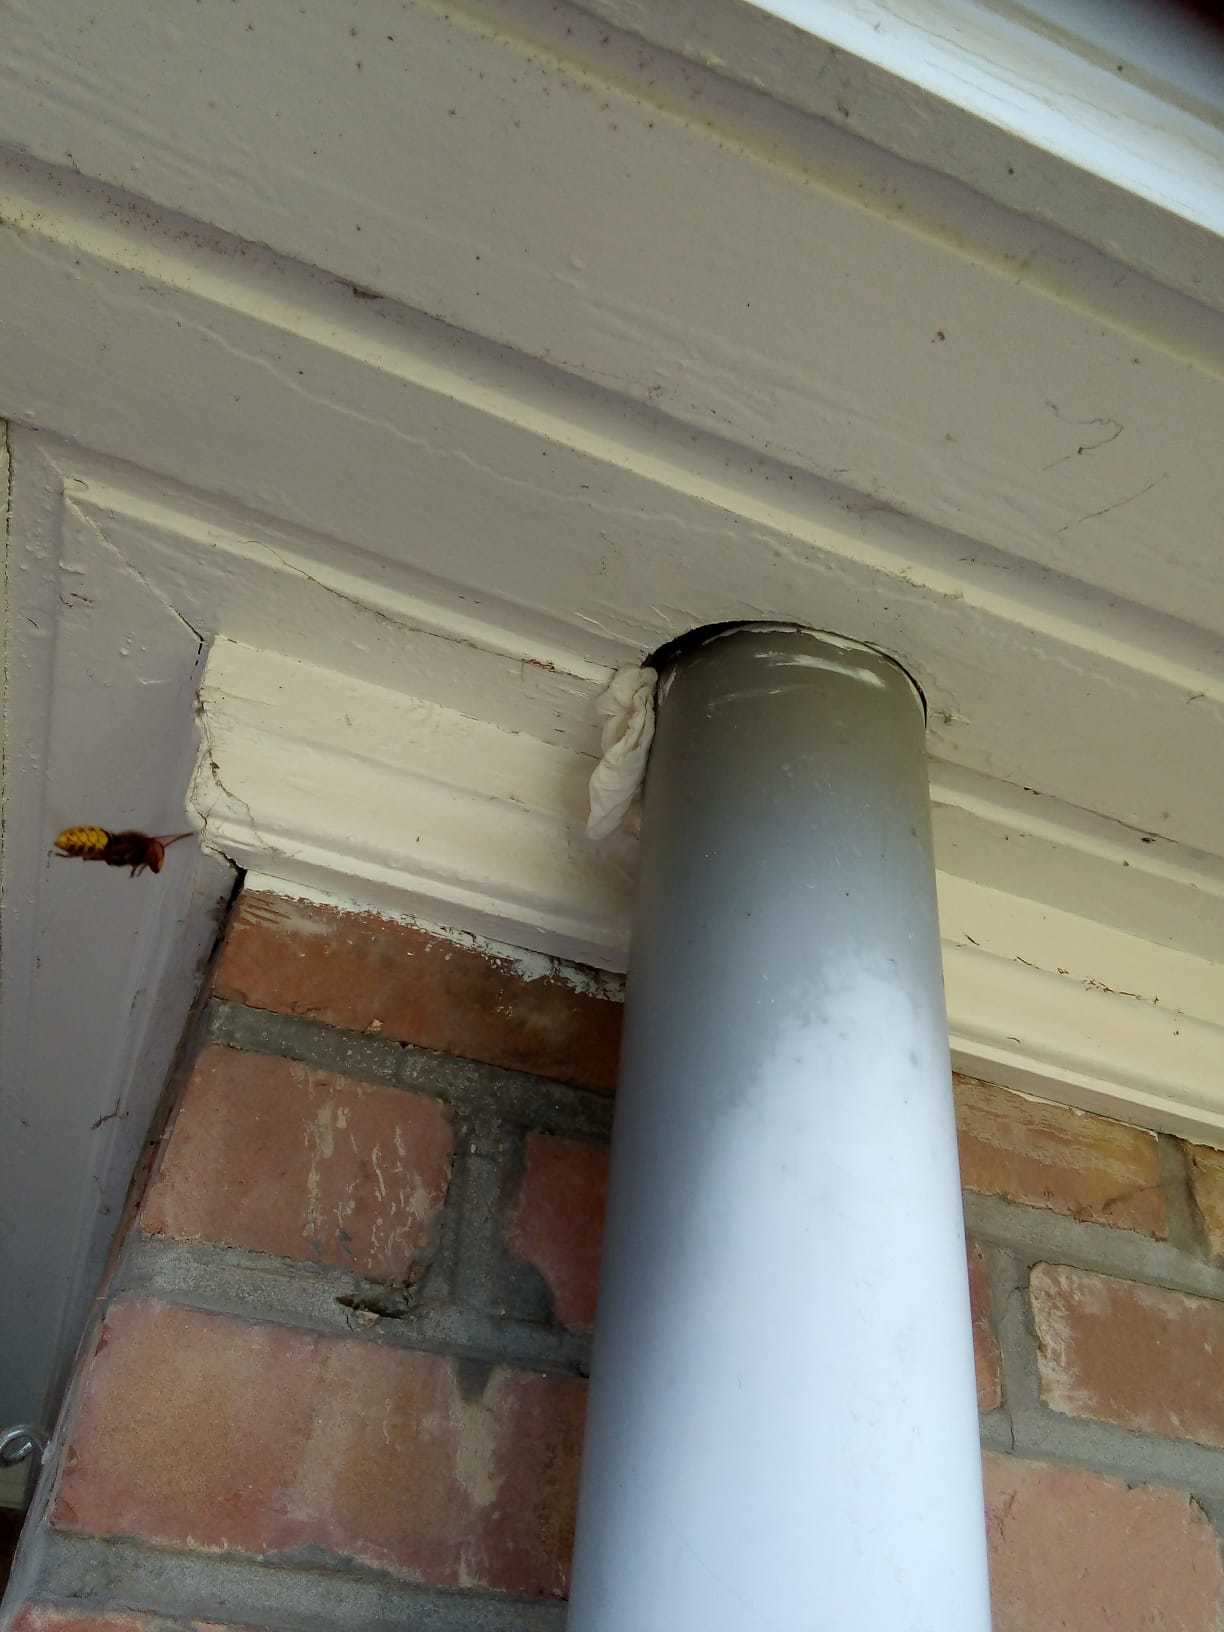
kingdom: Animalia
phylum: Arthropoda
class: Insecta
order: Hymenoptera
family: Vespidae
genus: Vespa
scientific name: Vespa crabro
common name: Hornet
